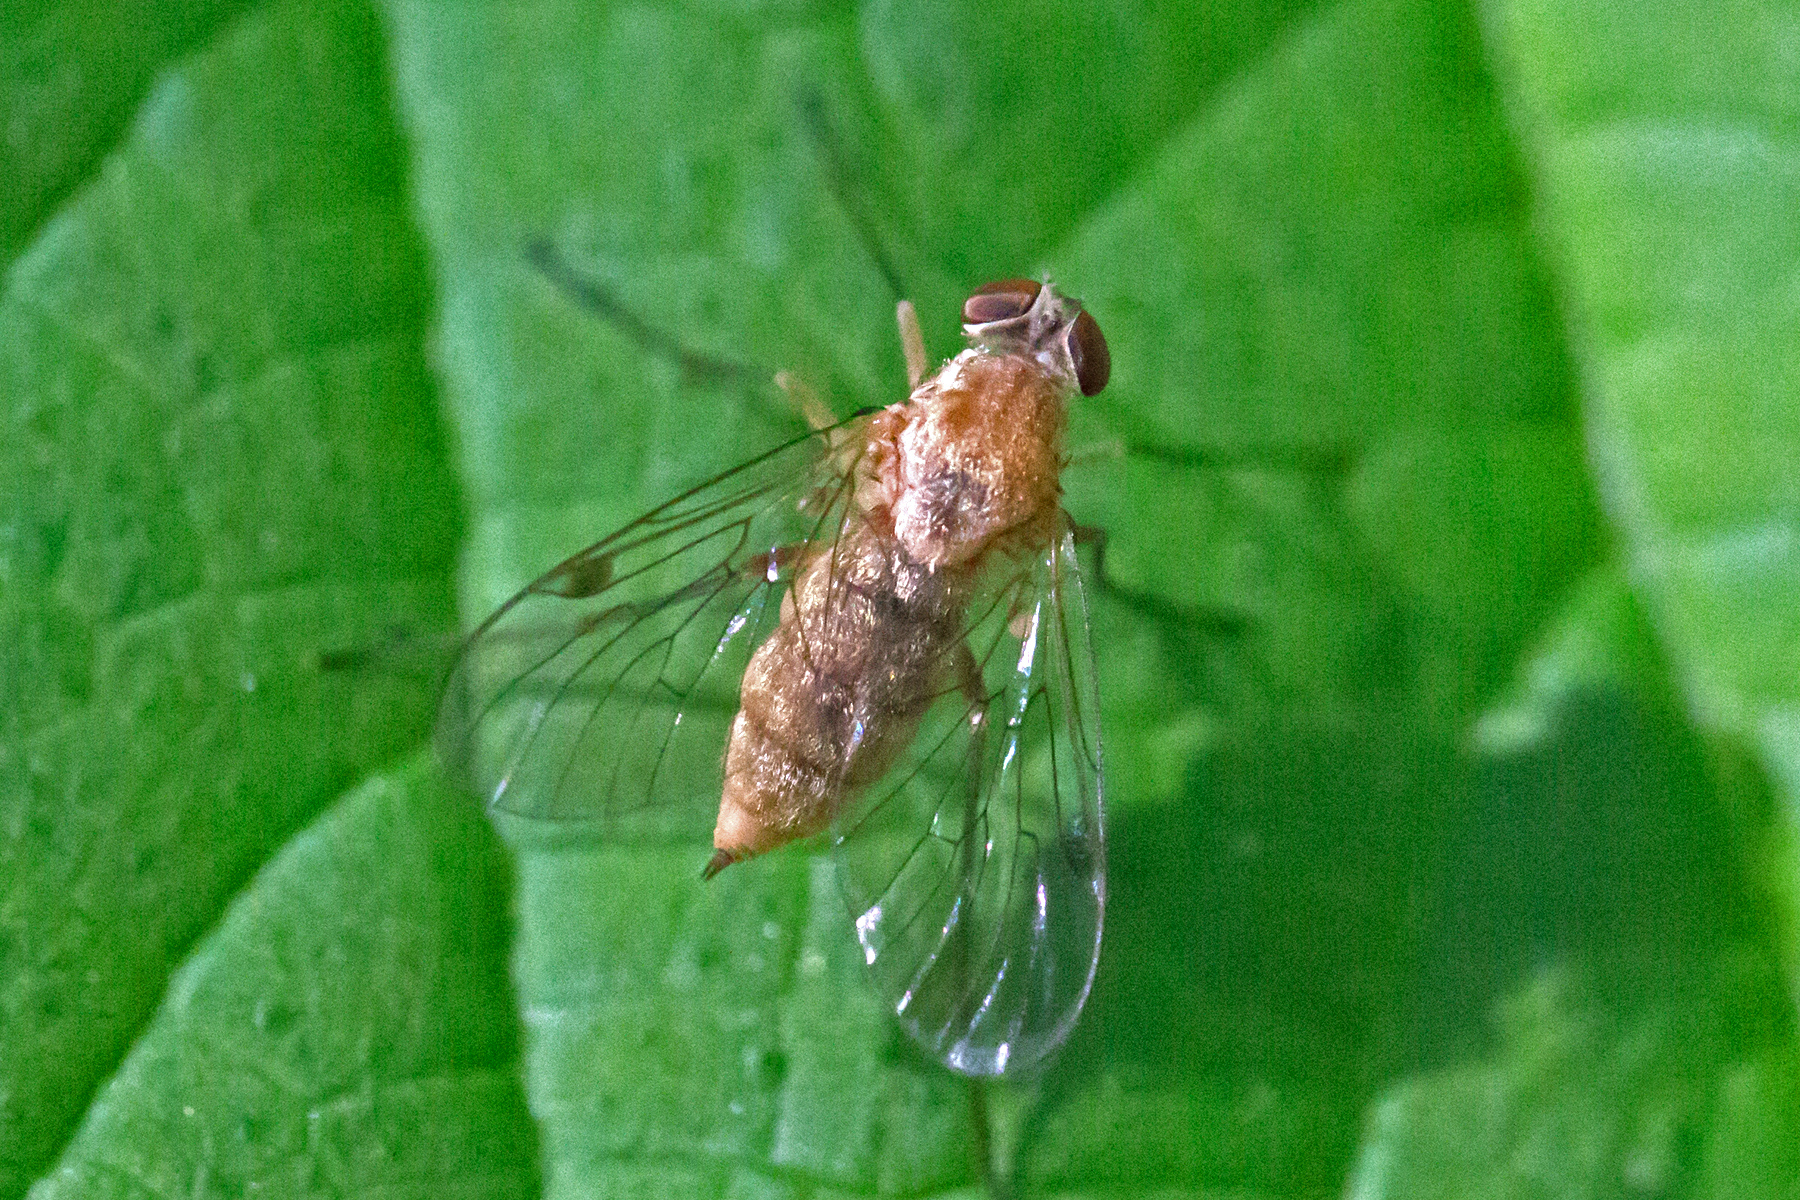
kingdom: Animalia
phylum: Arthropoda
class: Insecta
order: Diptera
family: Rhagionidae
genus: Chrysopilus
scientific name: Chrysopilus rotundipennis
